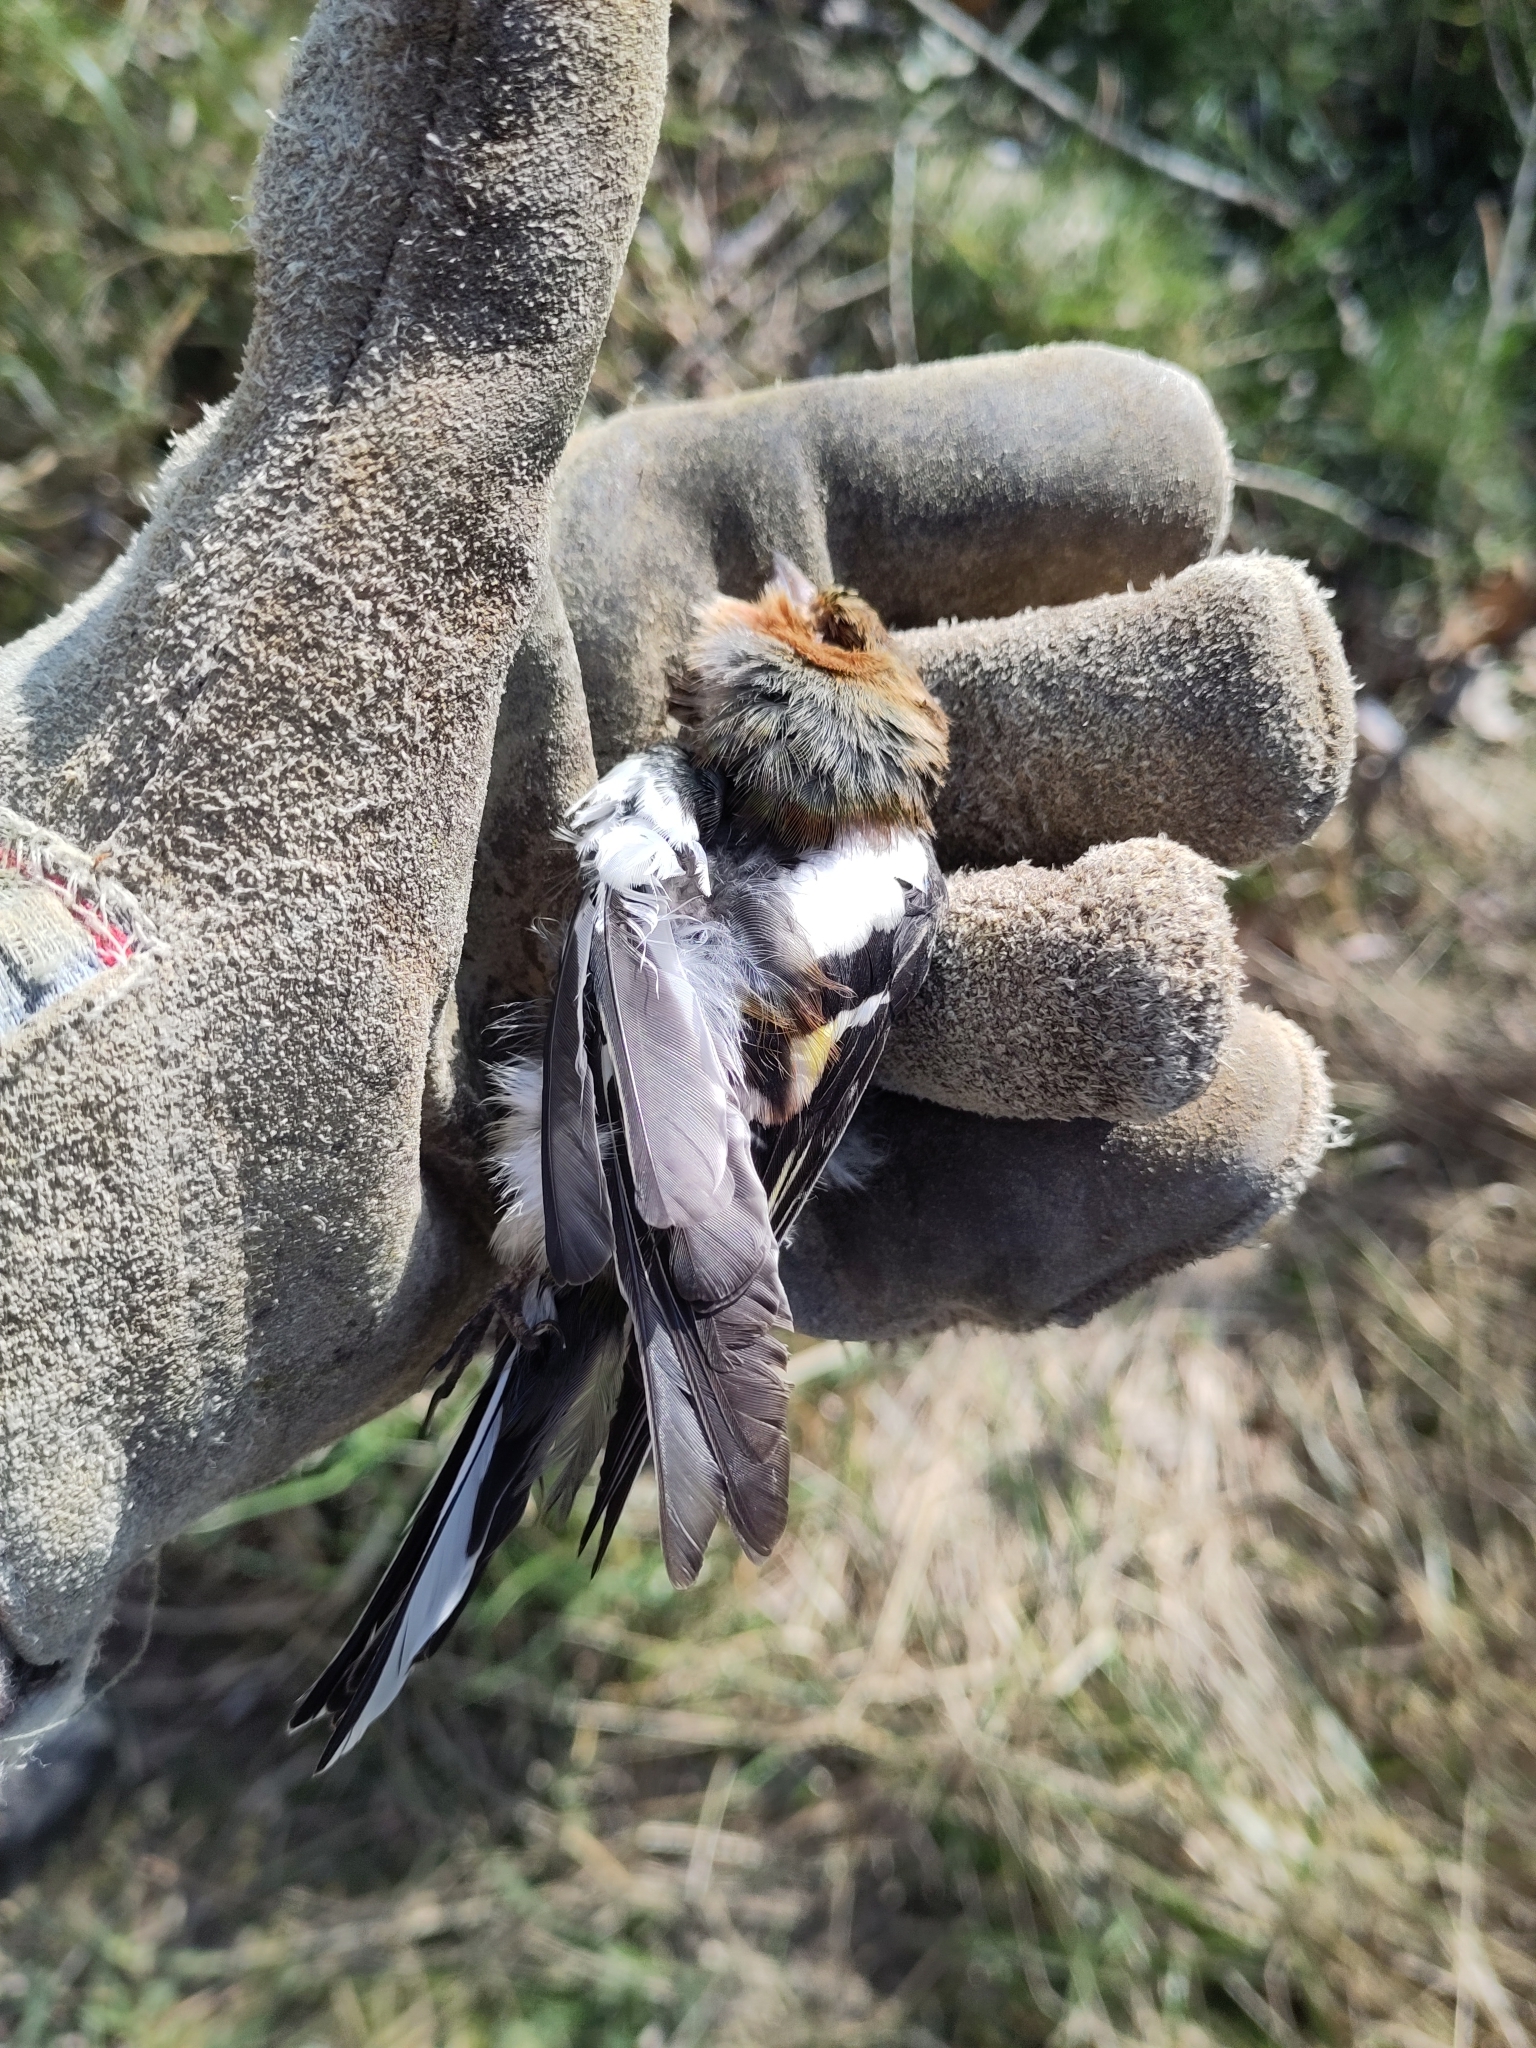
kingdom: Animalia
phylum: Chordata
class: Aves
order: Passeriformes
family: Fringillidae
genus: Fringilla
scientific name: Fringilla coelebs
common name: Common chaffinch
